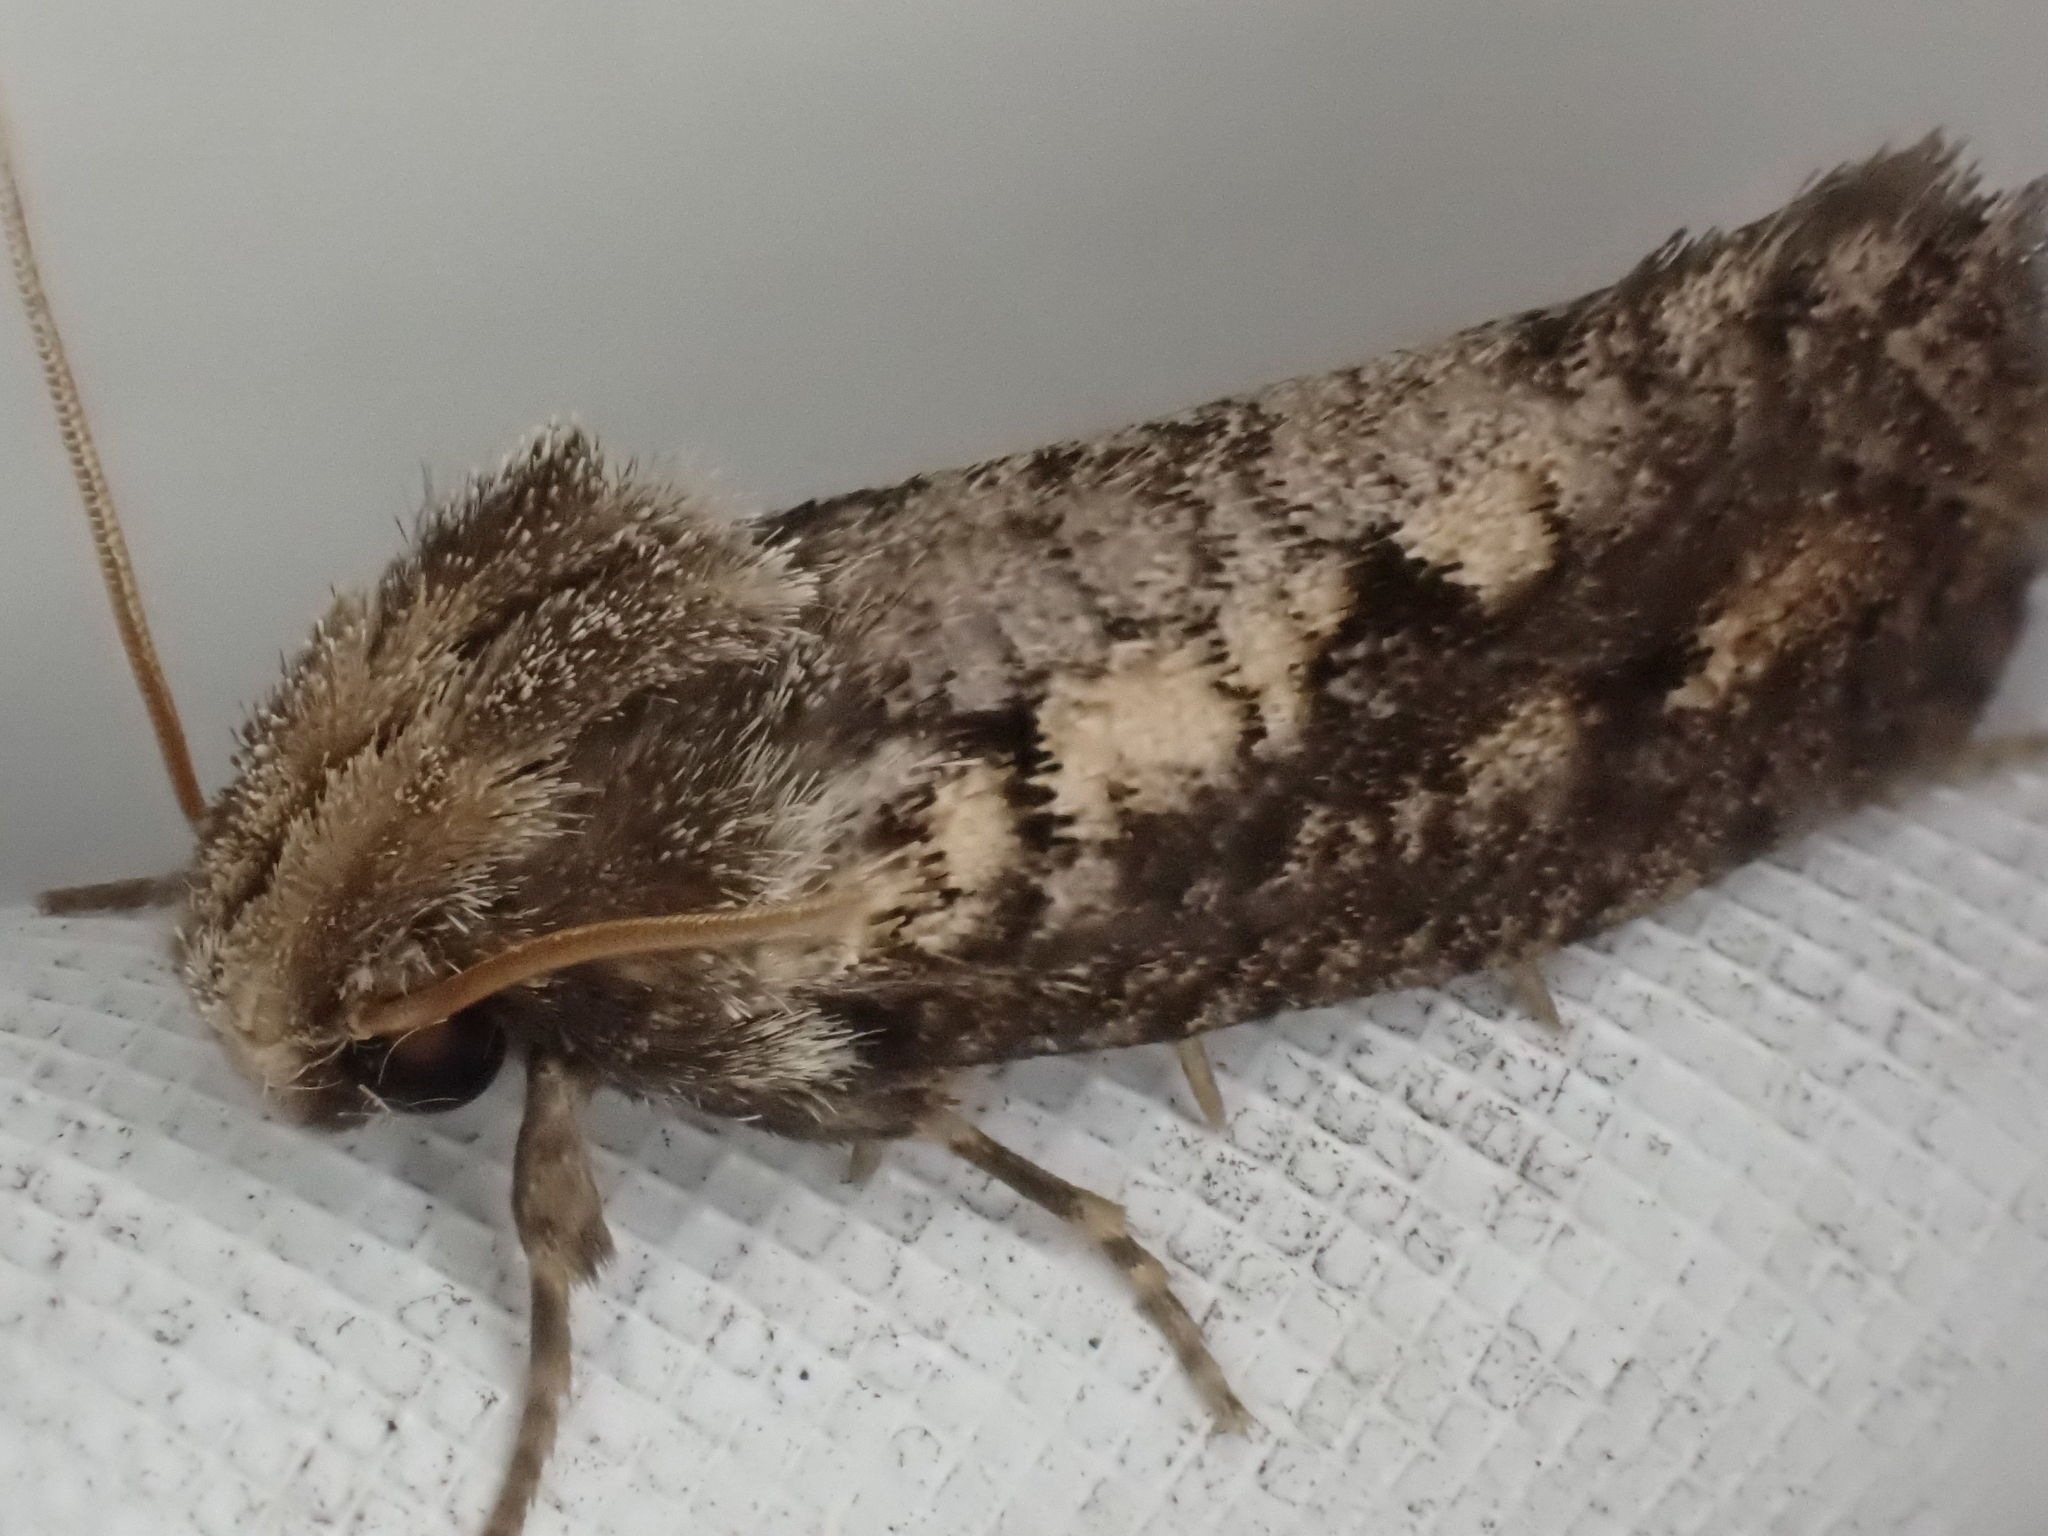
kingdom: Animalia
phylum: Arthropoda
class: Insecta
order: Lepidoptera
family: Tineidae
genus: Acrolophus
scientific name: Acrolophus popeanella
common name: Clemens' grass tubeworm moth
